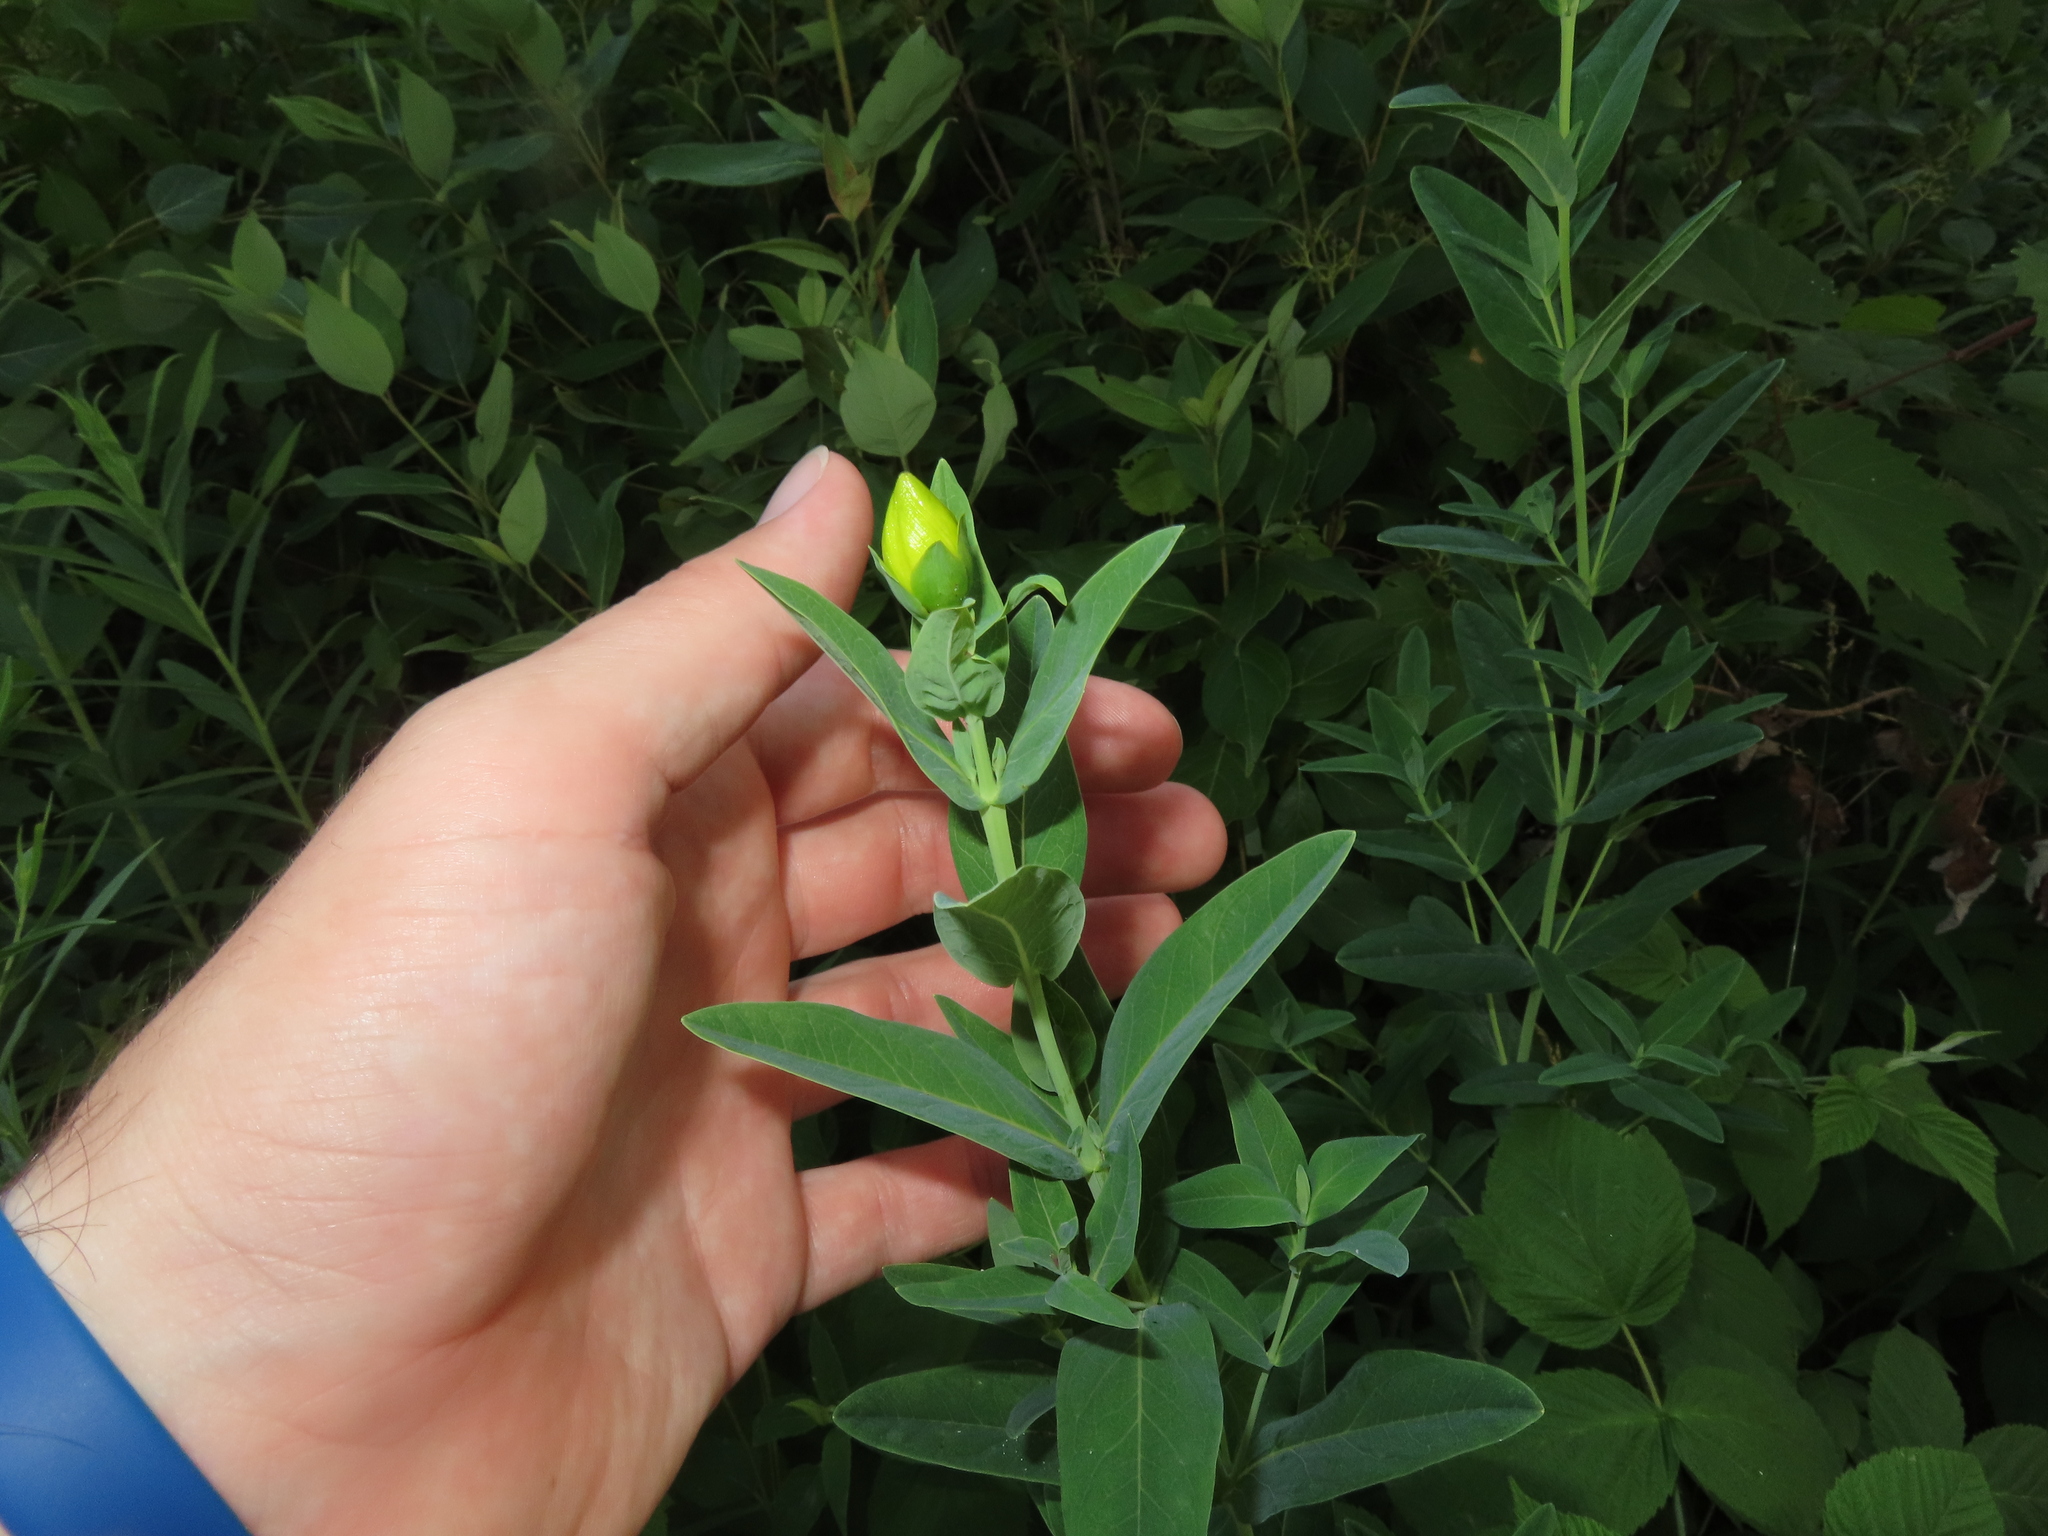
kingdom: Plantae
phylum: Tracheophyta
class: Magnoliopsida
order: Malpighiales
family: Hypericaceae
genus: Hypericum
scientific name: Hypericum ascyron
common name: Giant st. john's-wort
